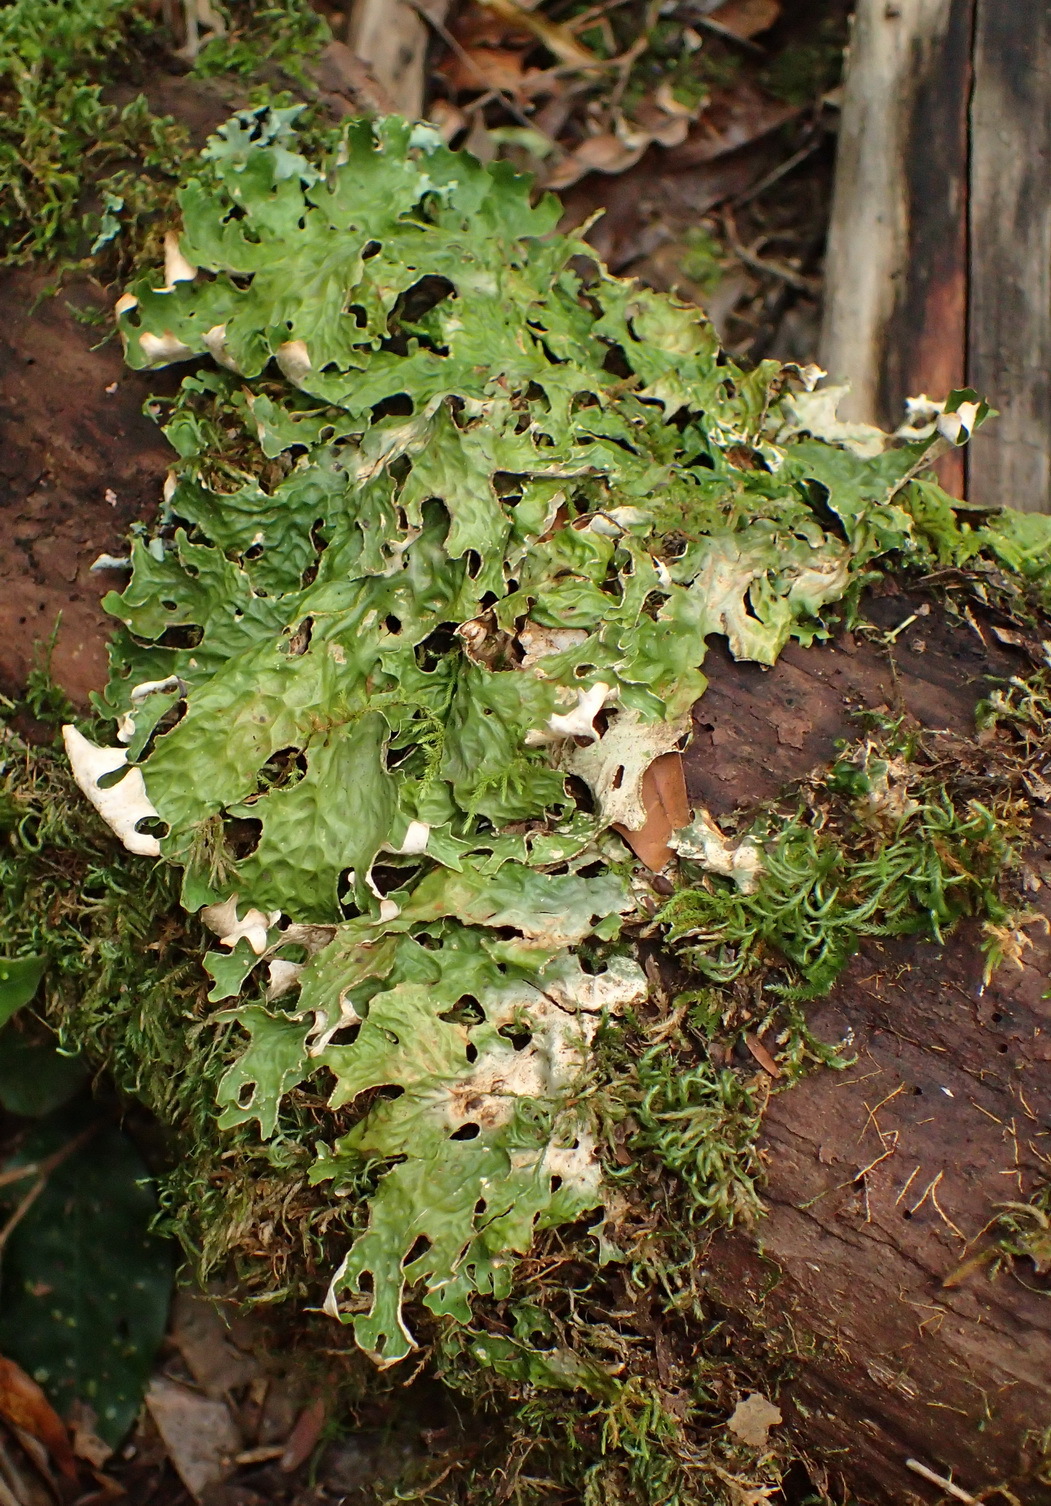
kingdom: Fungi
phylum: Ascomycota
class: Lecanoromycetes
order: Peltigerales
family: Lobariaceae
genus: Lobaria
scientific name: Lobaria pulmonaria
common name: Lungwort
